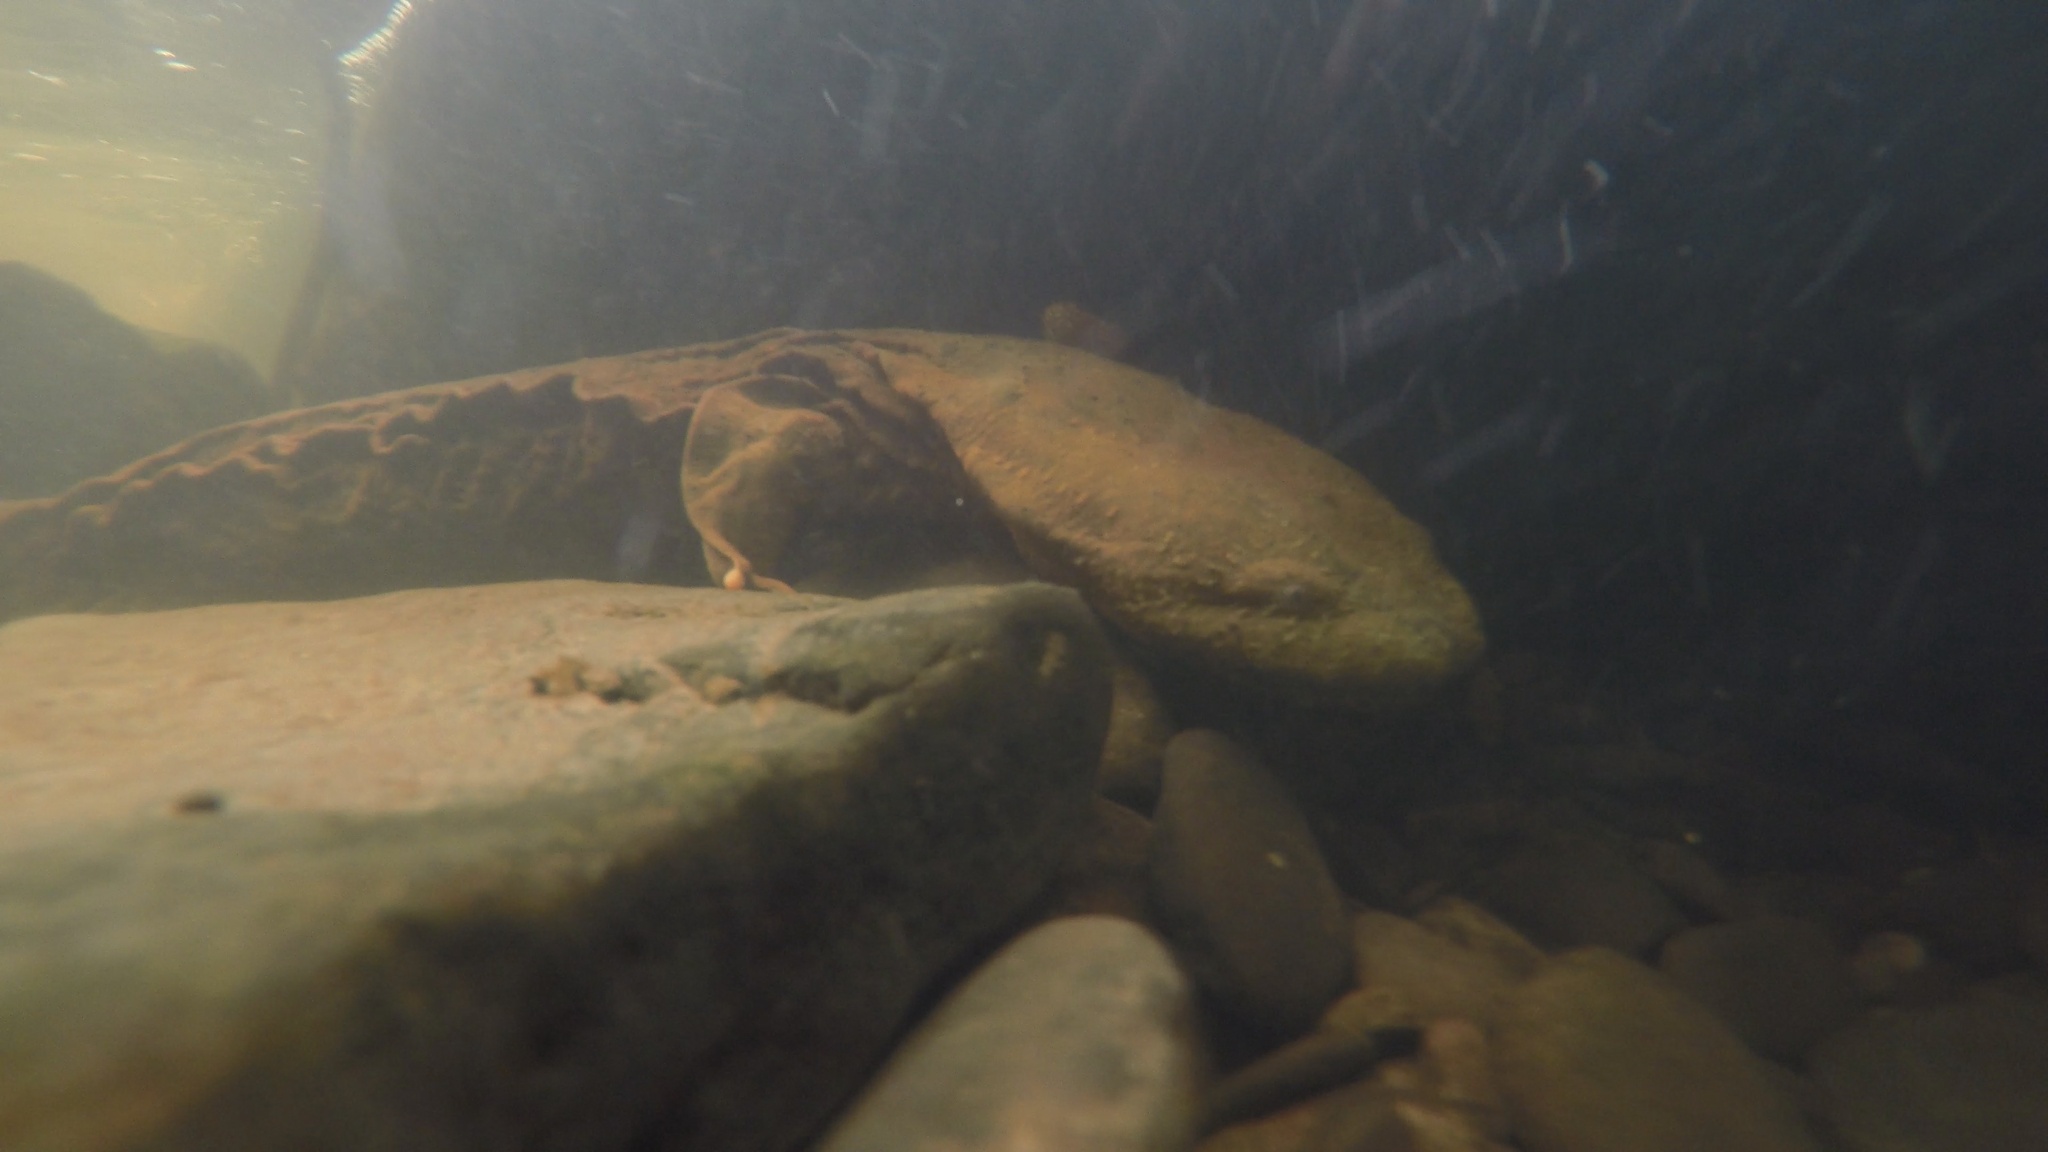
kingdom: Animalia
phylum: Chordata
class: Amphibia
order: Caudata
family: Cryptobranchidae
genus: Cryptobranchus
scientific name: Cryptobranchus alleganiensis
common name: Hellbender
